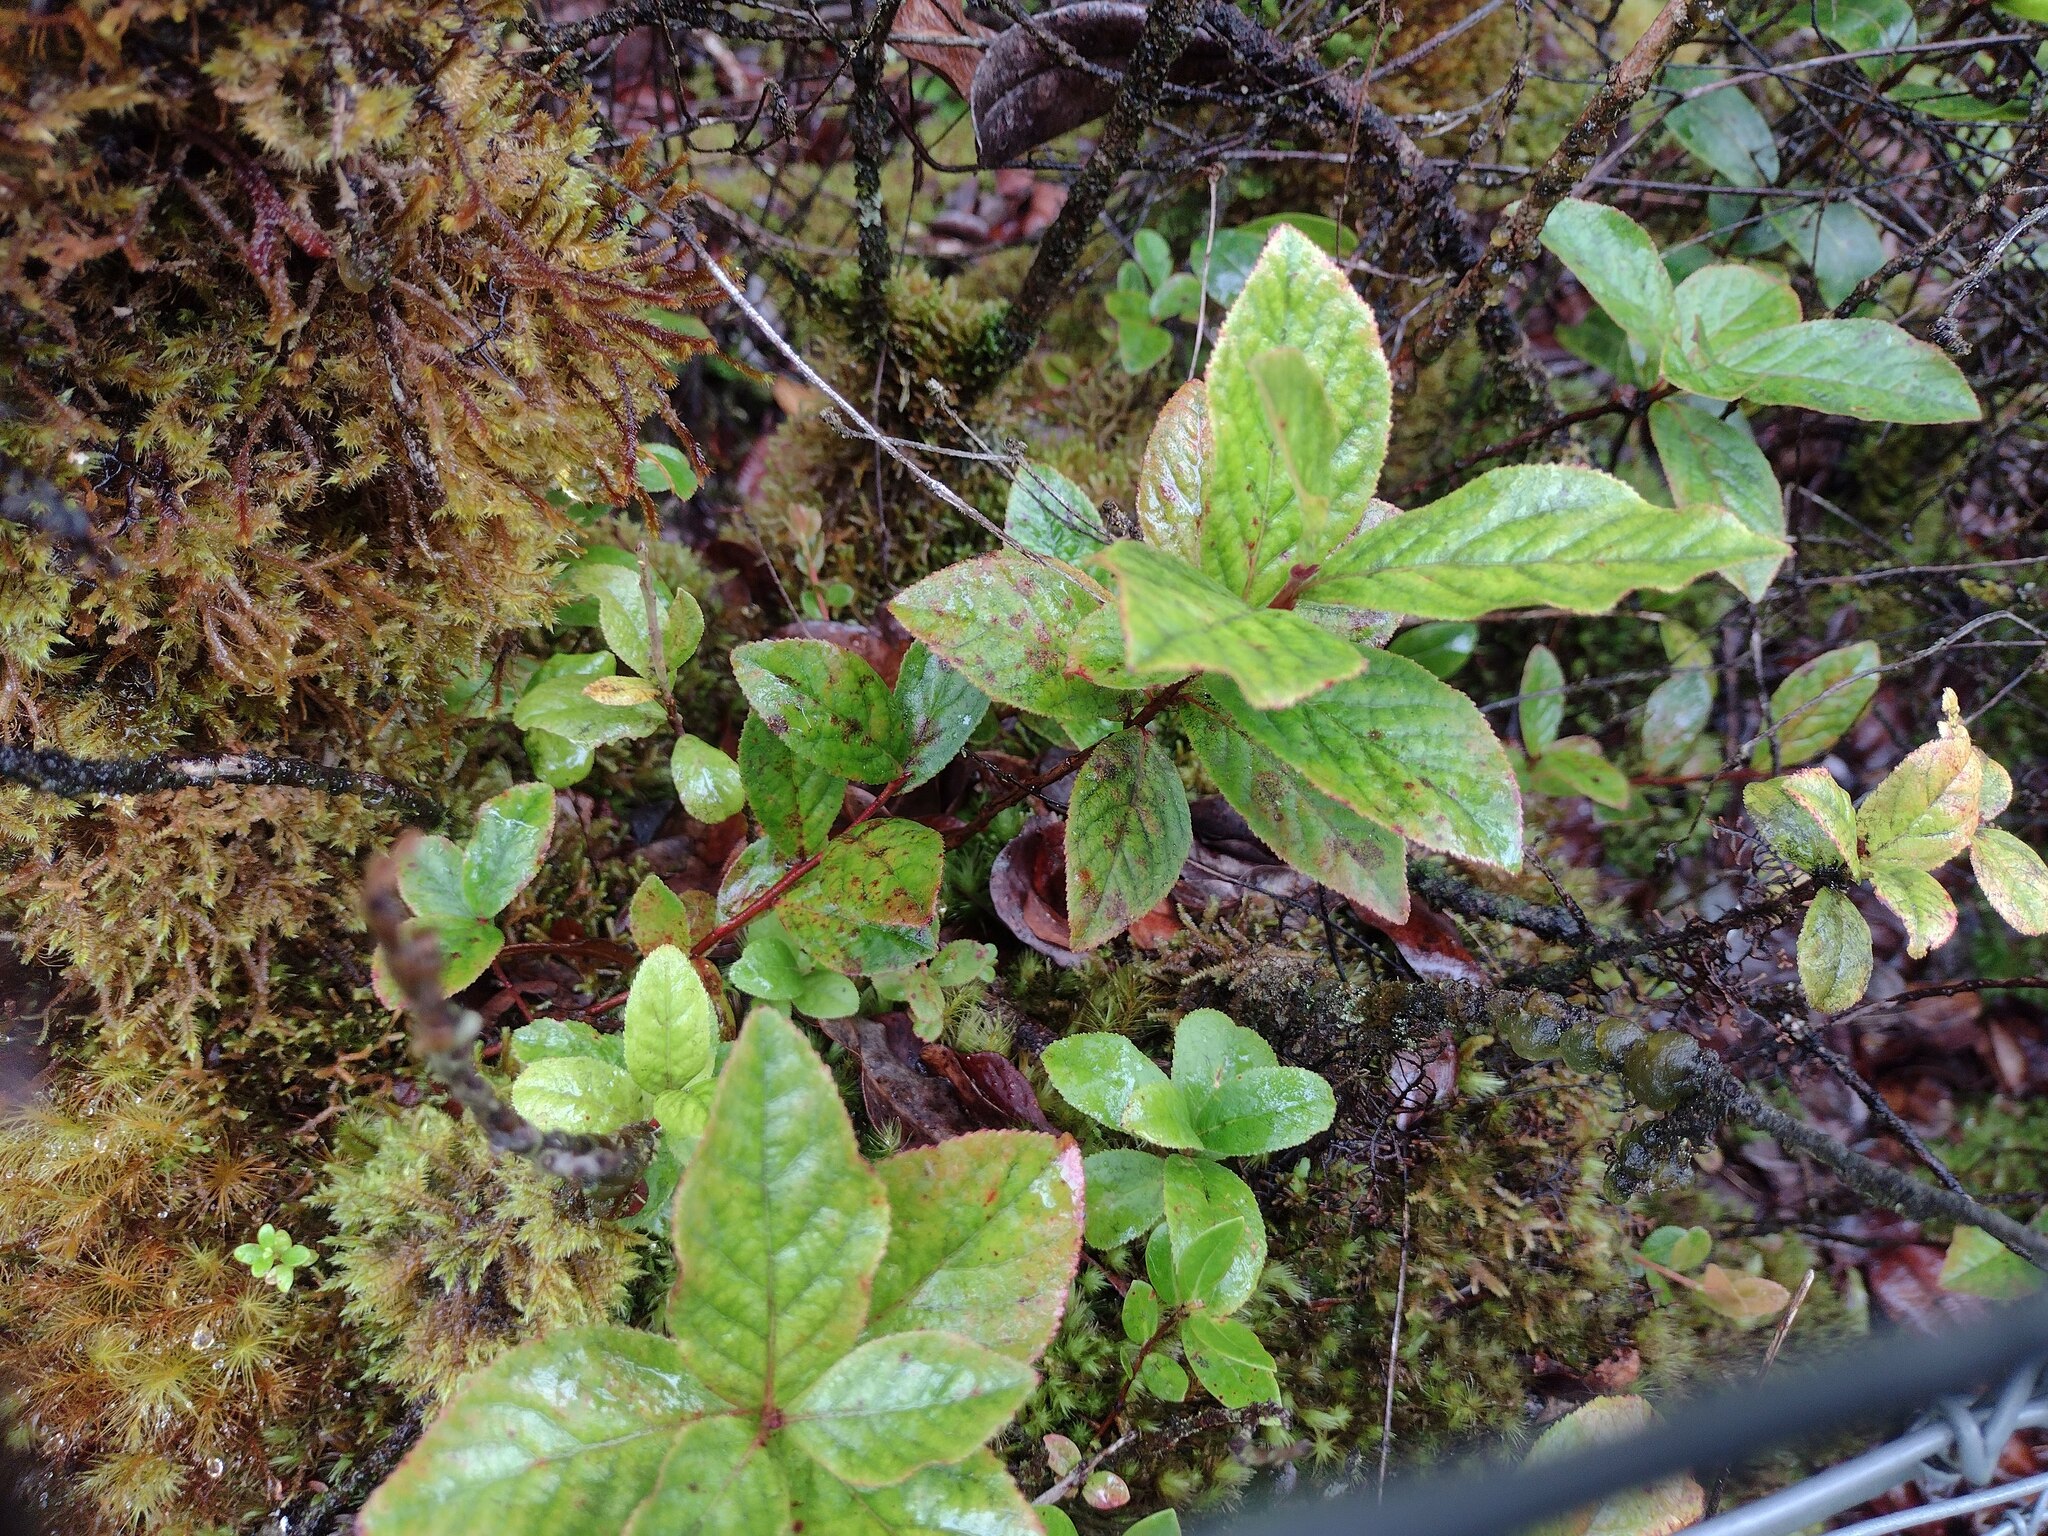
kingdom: Plantae
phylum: Tracheophyta
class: Magnoliopsida
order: Ericales
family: Ericaceae
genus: Vaccinium
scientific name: Vaccinium calycinum
